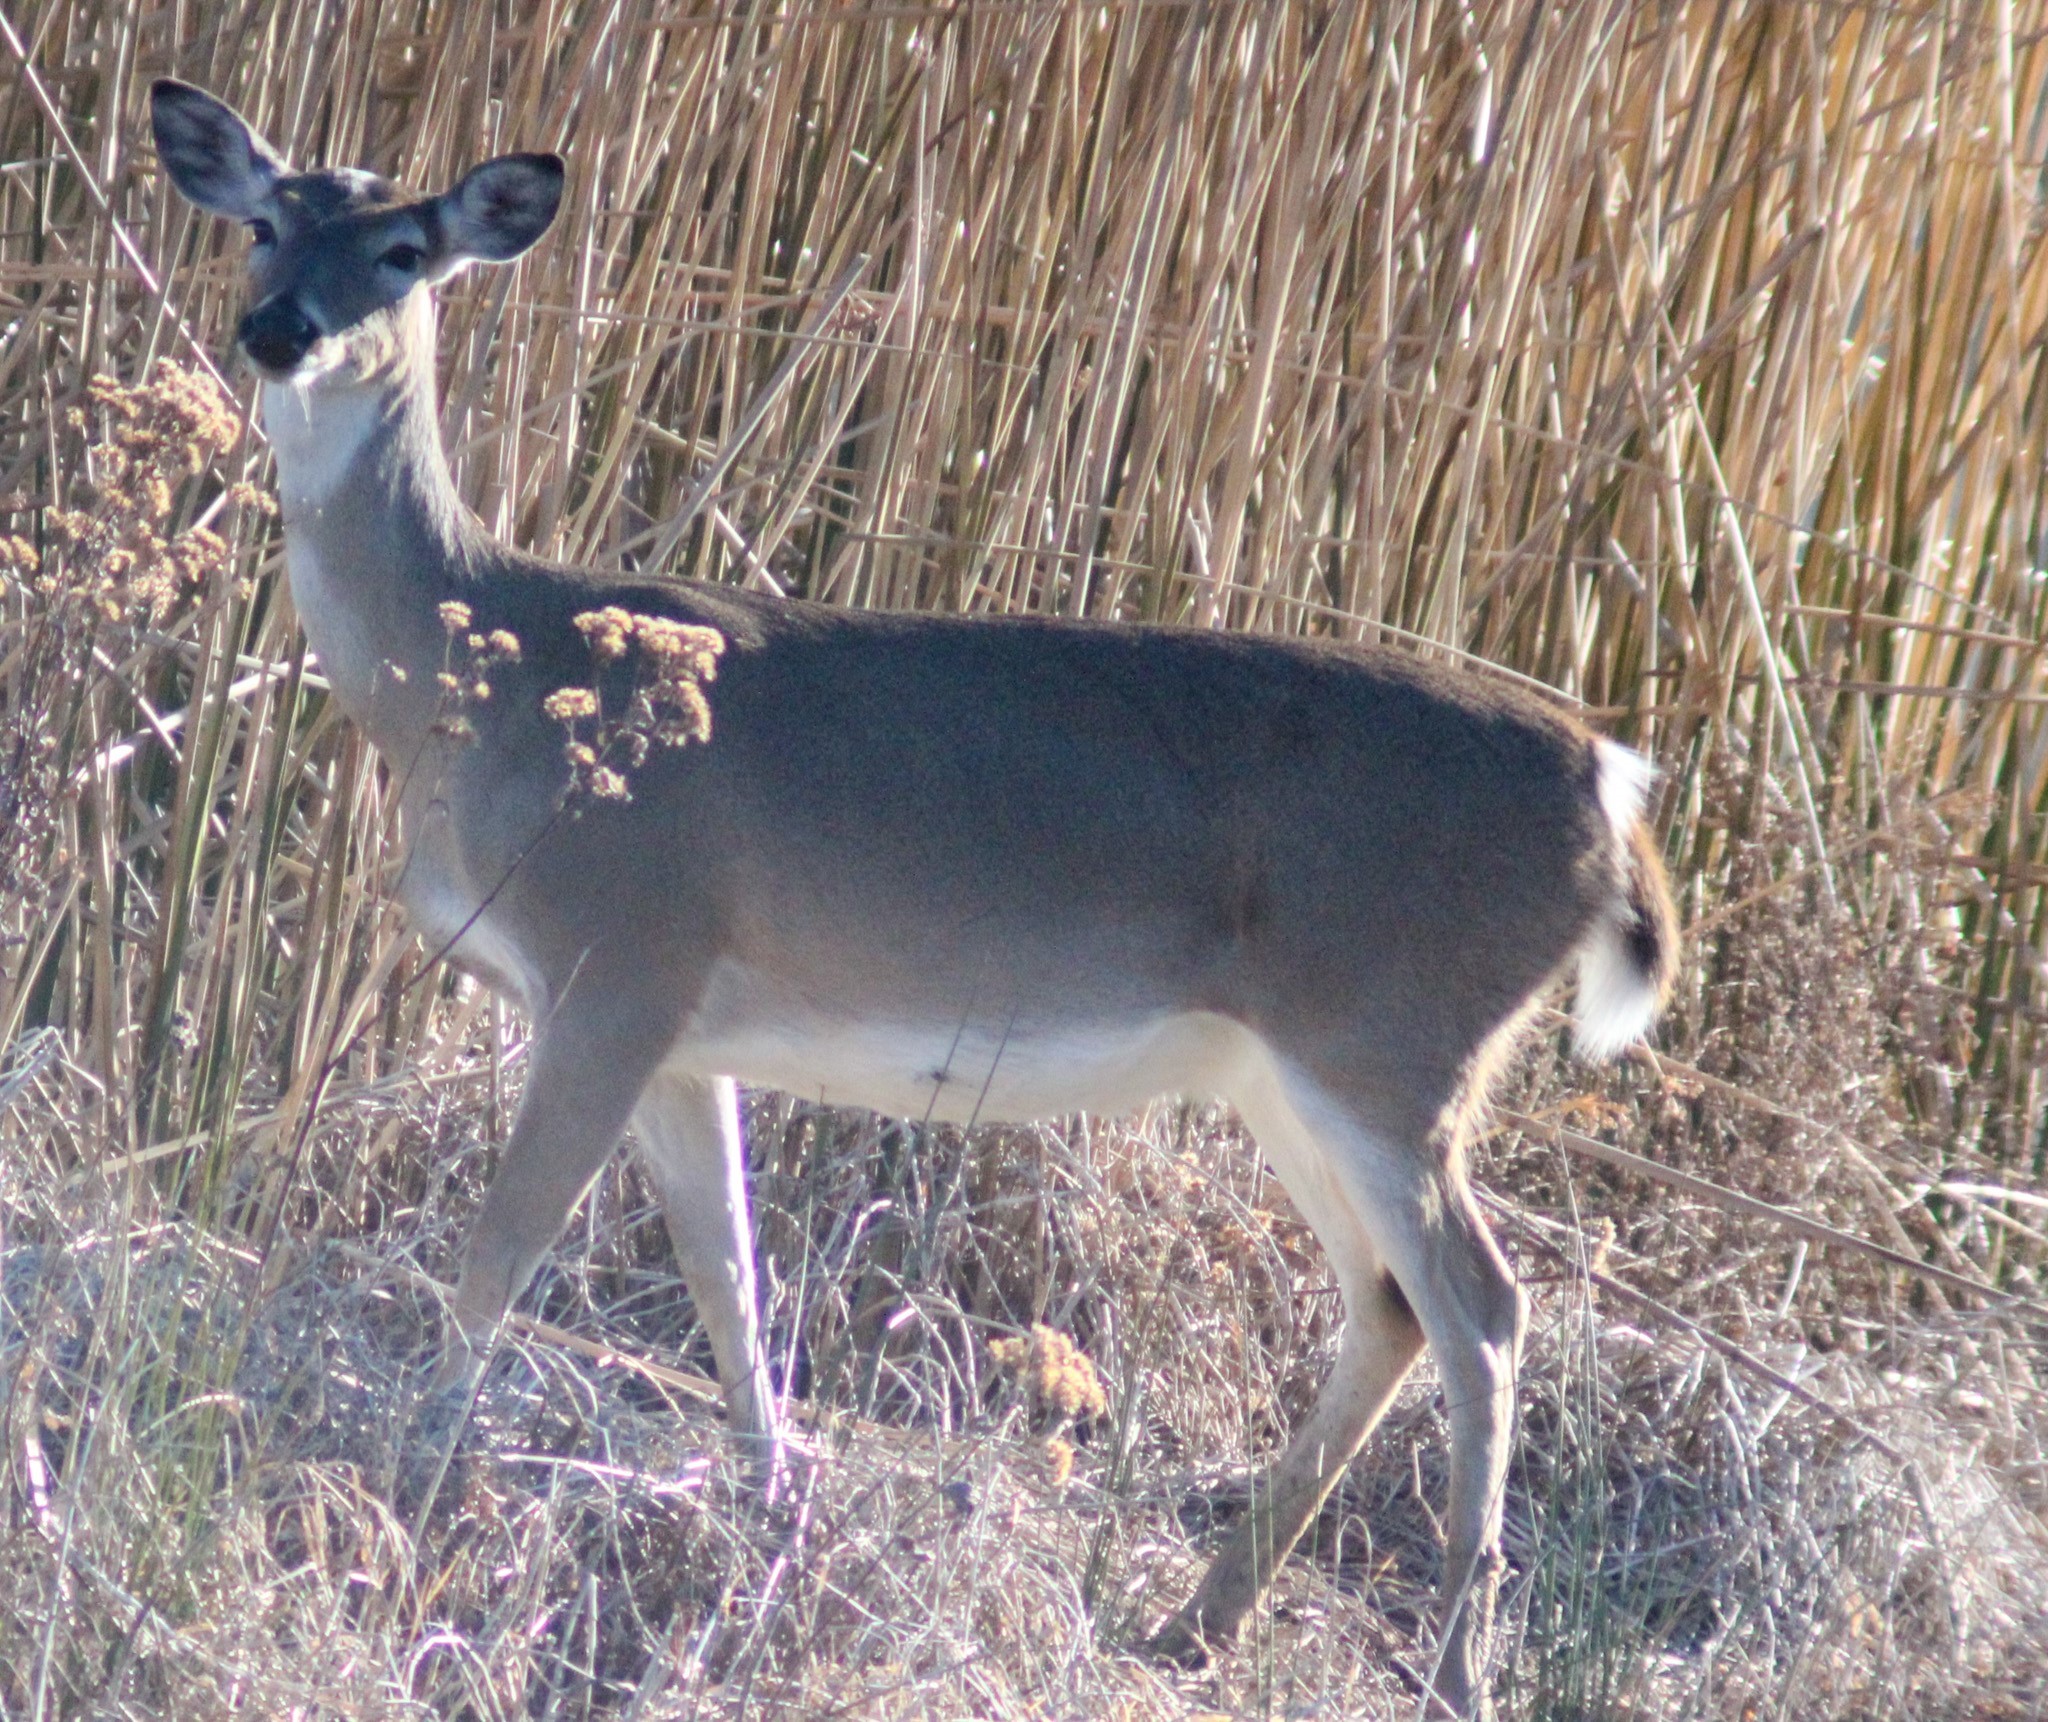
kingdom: Animalia
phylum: Chordata
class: Mammalia
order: Artiodactyla
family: Cervidae
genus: Odocoileus
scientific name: Odocoileus virginianus
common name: White-tailed deer
